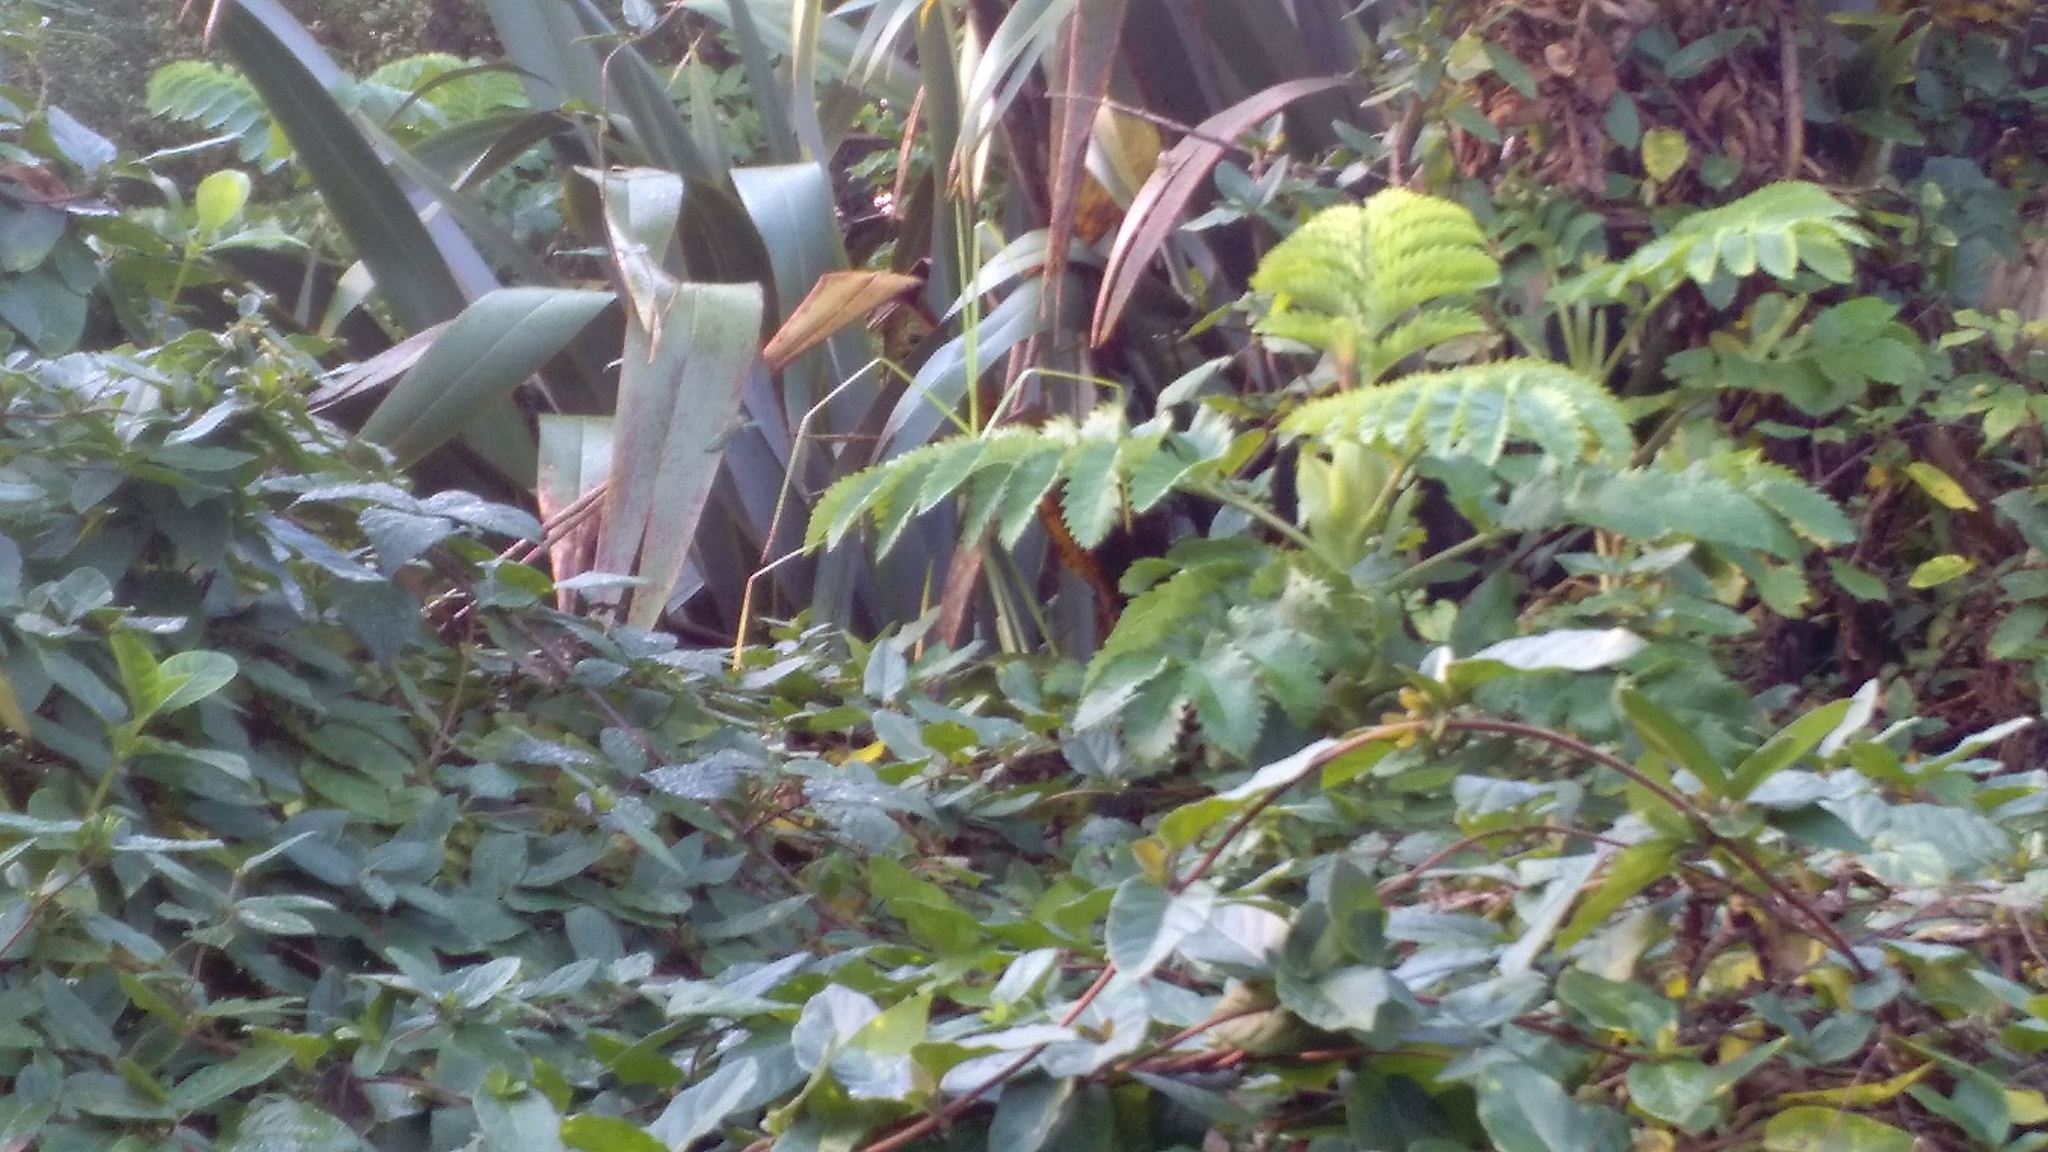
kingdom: Plantae
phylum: Tracheophyta
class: Liliopsida
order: Asparagales
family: Asphodelaceae
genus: Phormium
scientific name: Phormium tenax
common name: New zealand flax
